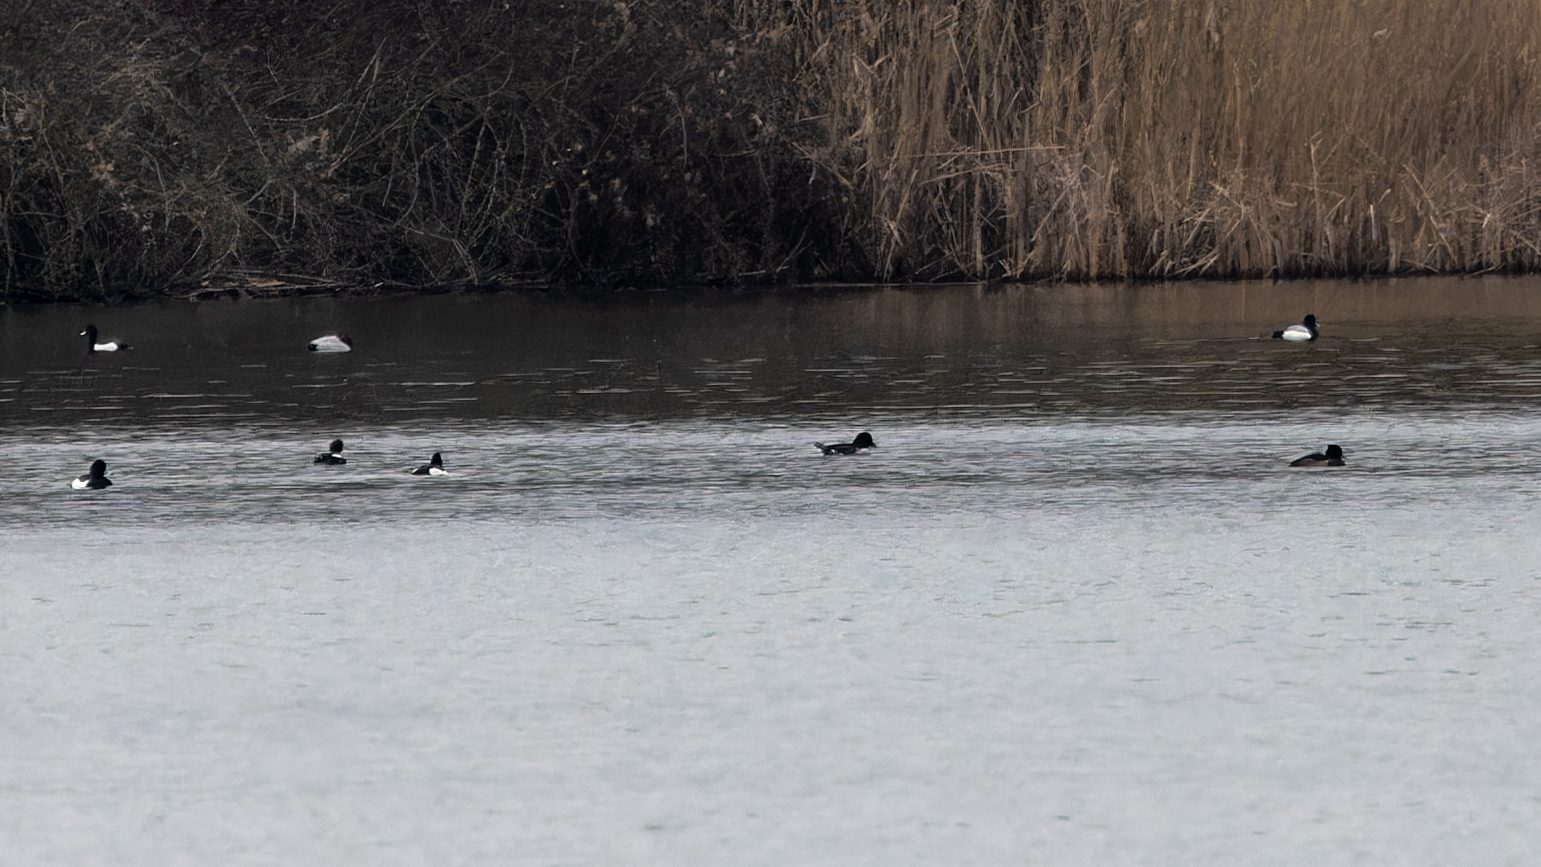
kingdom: Animalia
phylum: Chordata
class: Aves
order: Anseriformes
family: Anatidae
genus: Aythya
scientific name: Aythya fuligula
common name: Tufted duck
